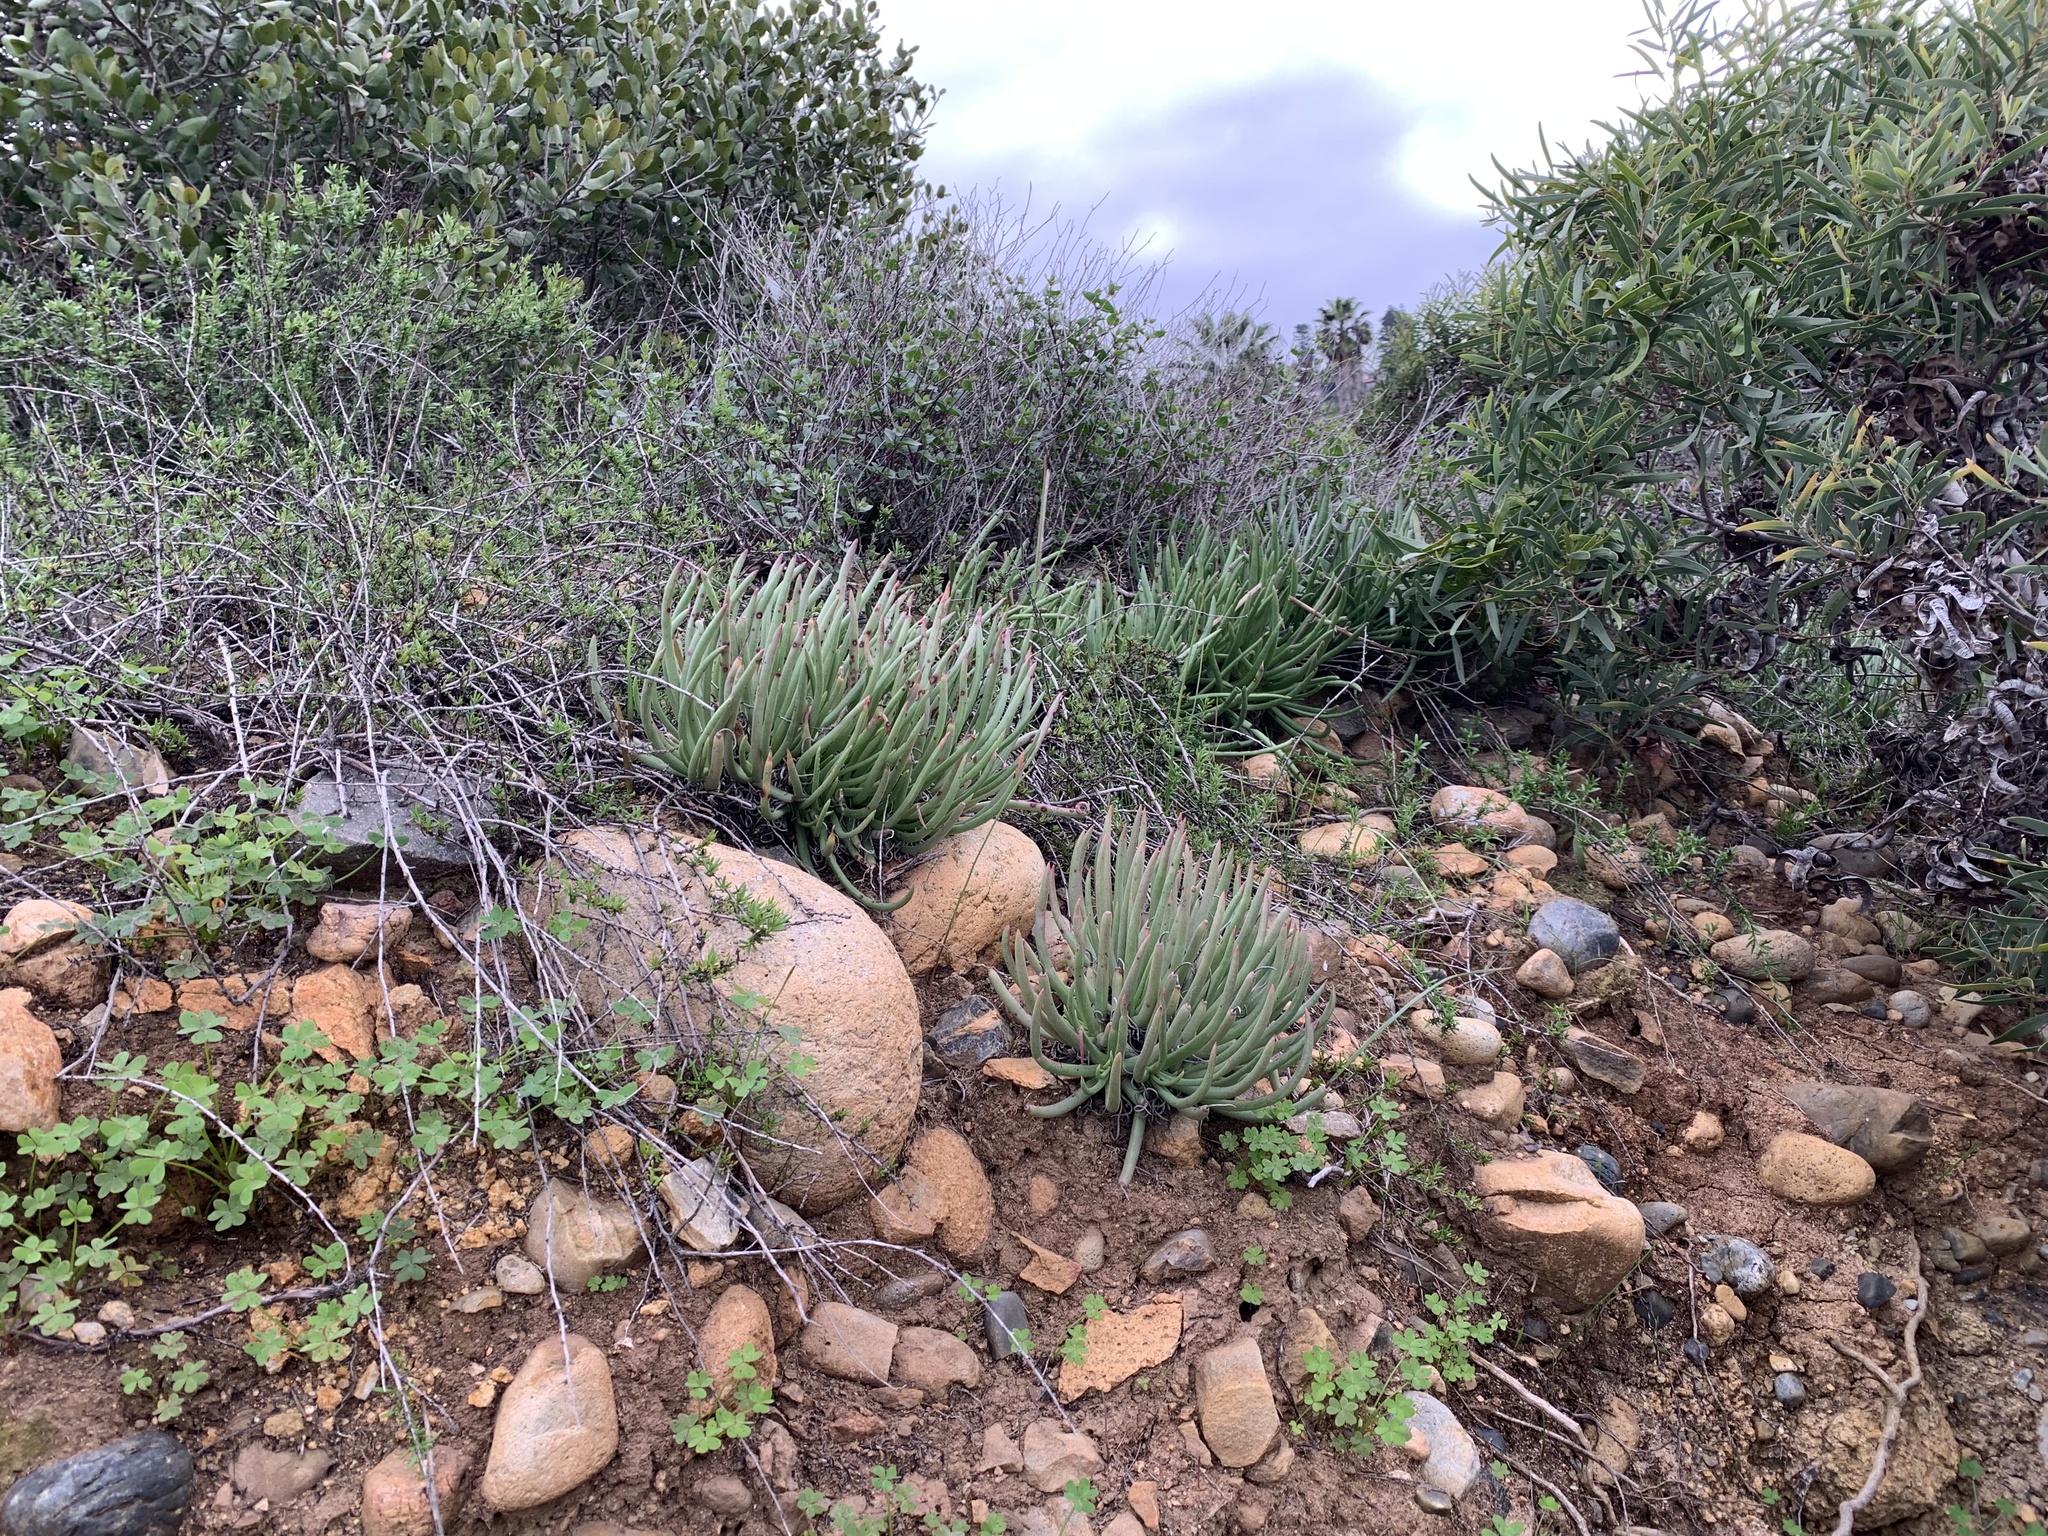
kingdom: Plantae
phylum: Tracheophyta
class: Magnoliopsida
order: Saxifragales
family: Crassulaceae
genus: Dudleya
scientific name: Dudleya edulis
